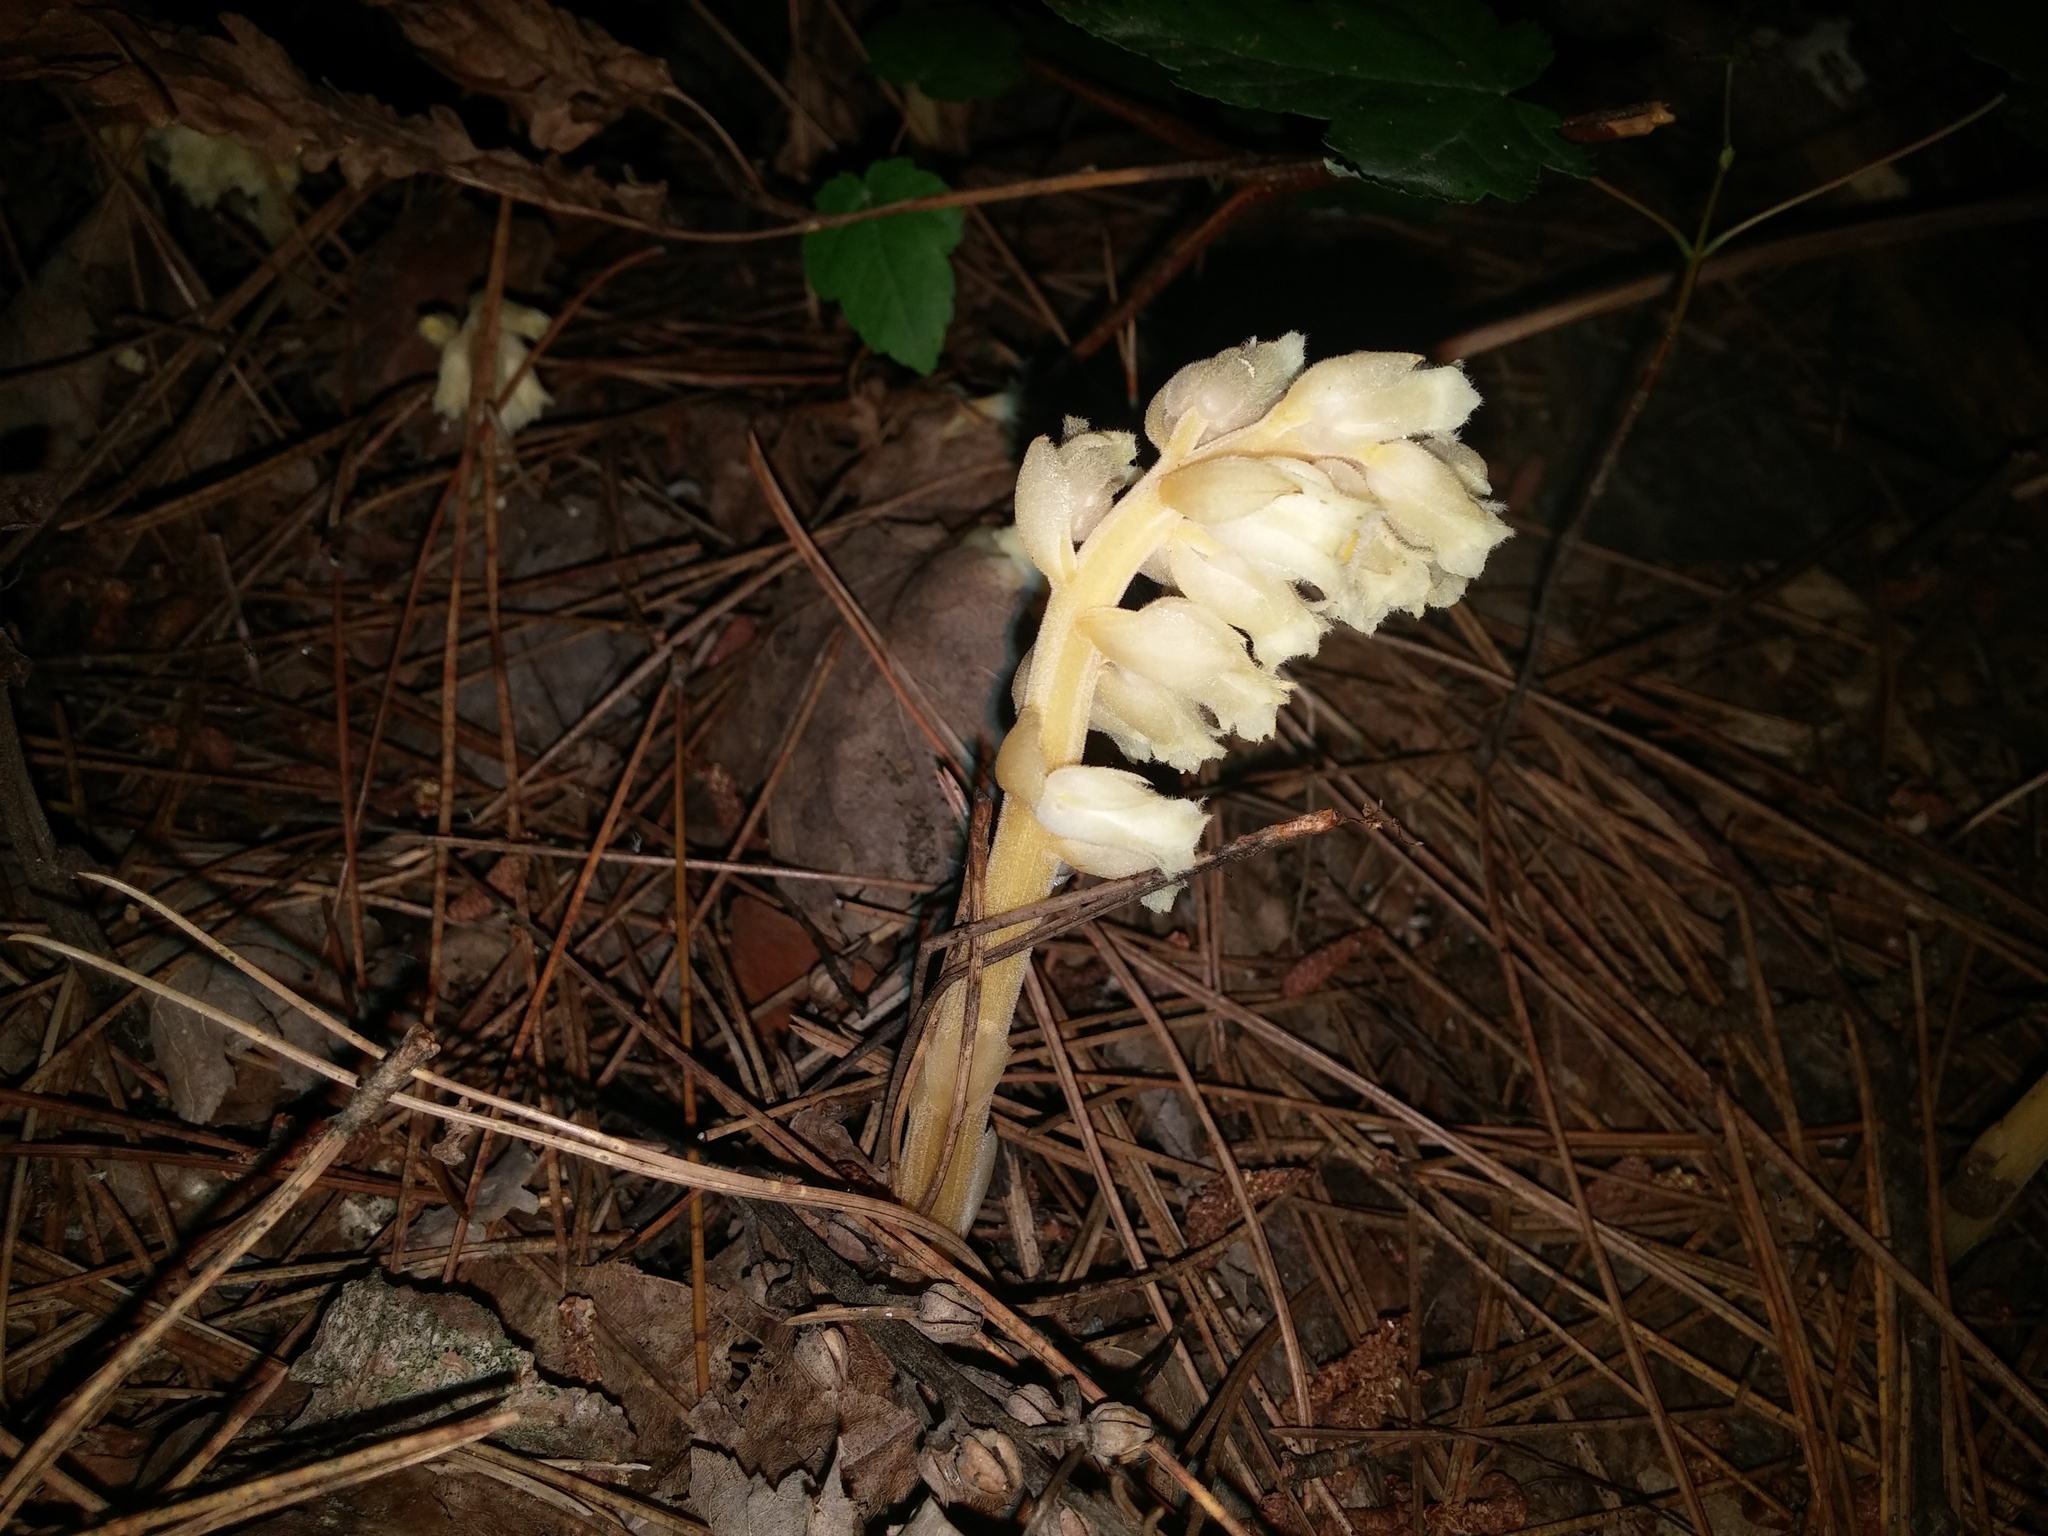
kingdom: Plantae
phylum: Tracheophyta
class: Magnoliopsida
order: Ericales
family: Ericaceae
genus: Hypopitys
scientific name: Hypopitys monotropa
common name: Yellow bird's-nest
